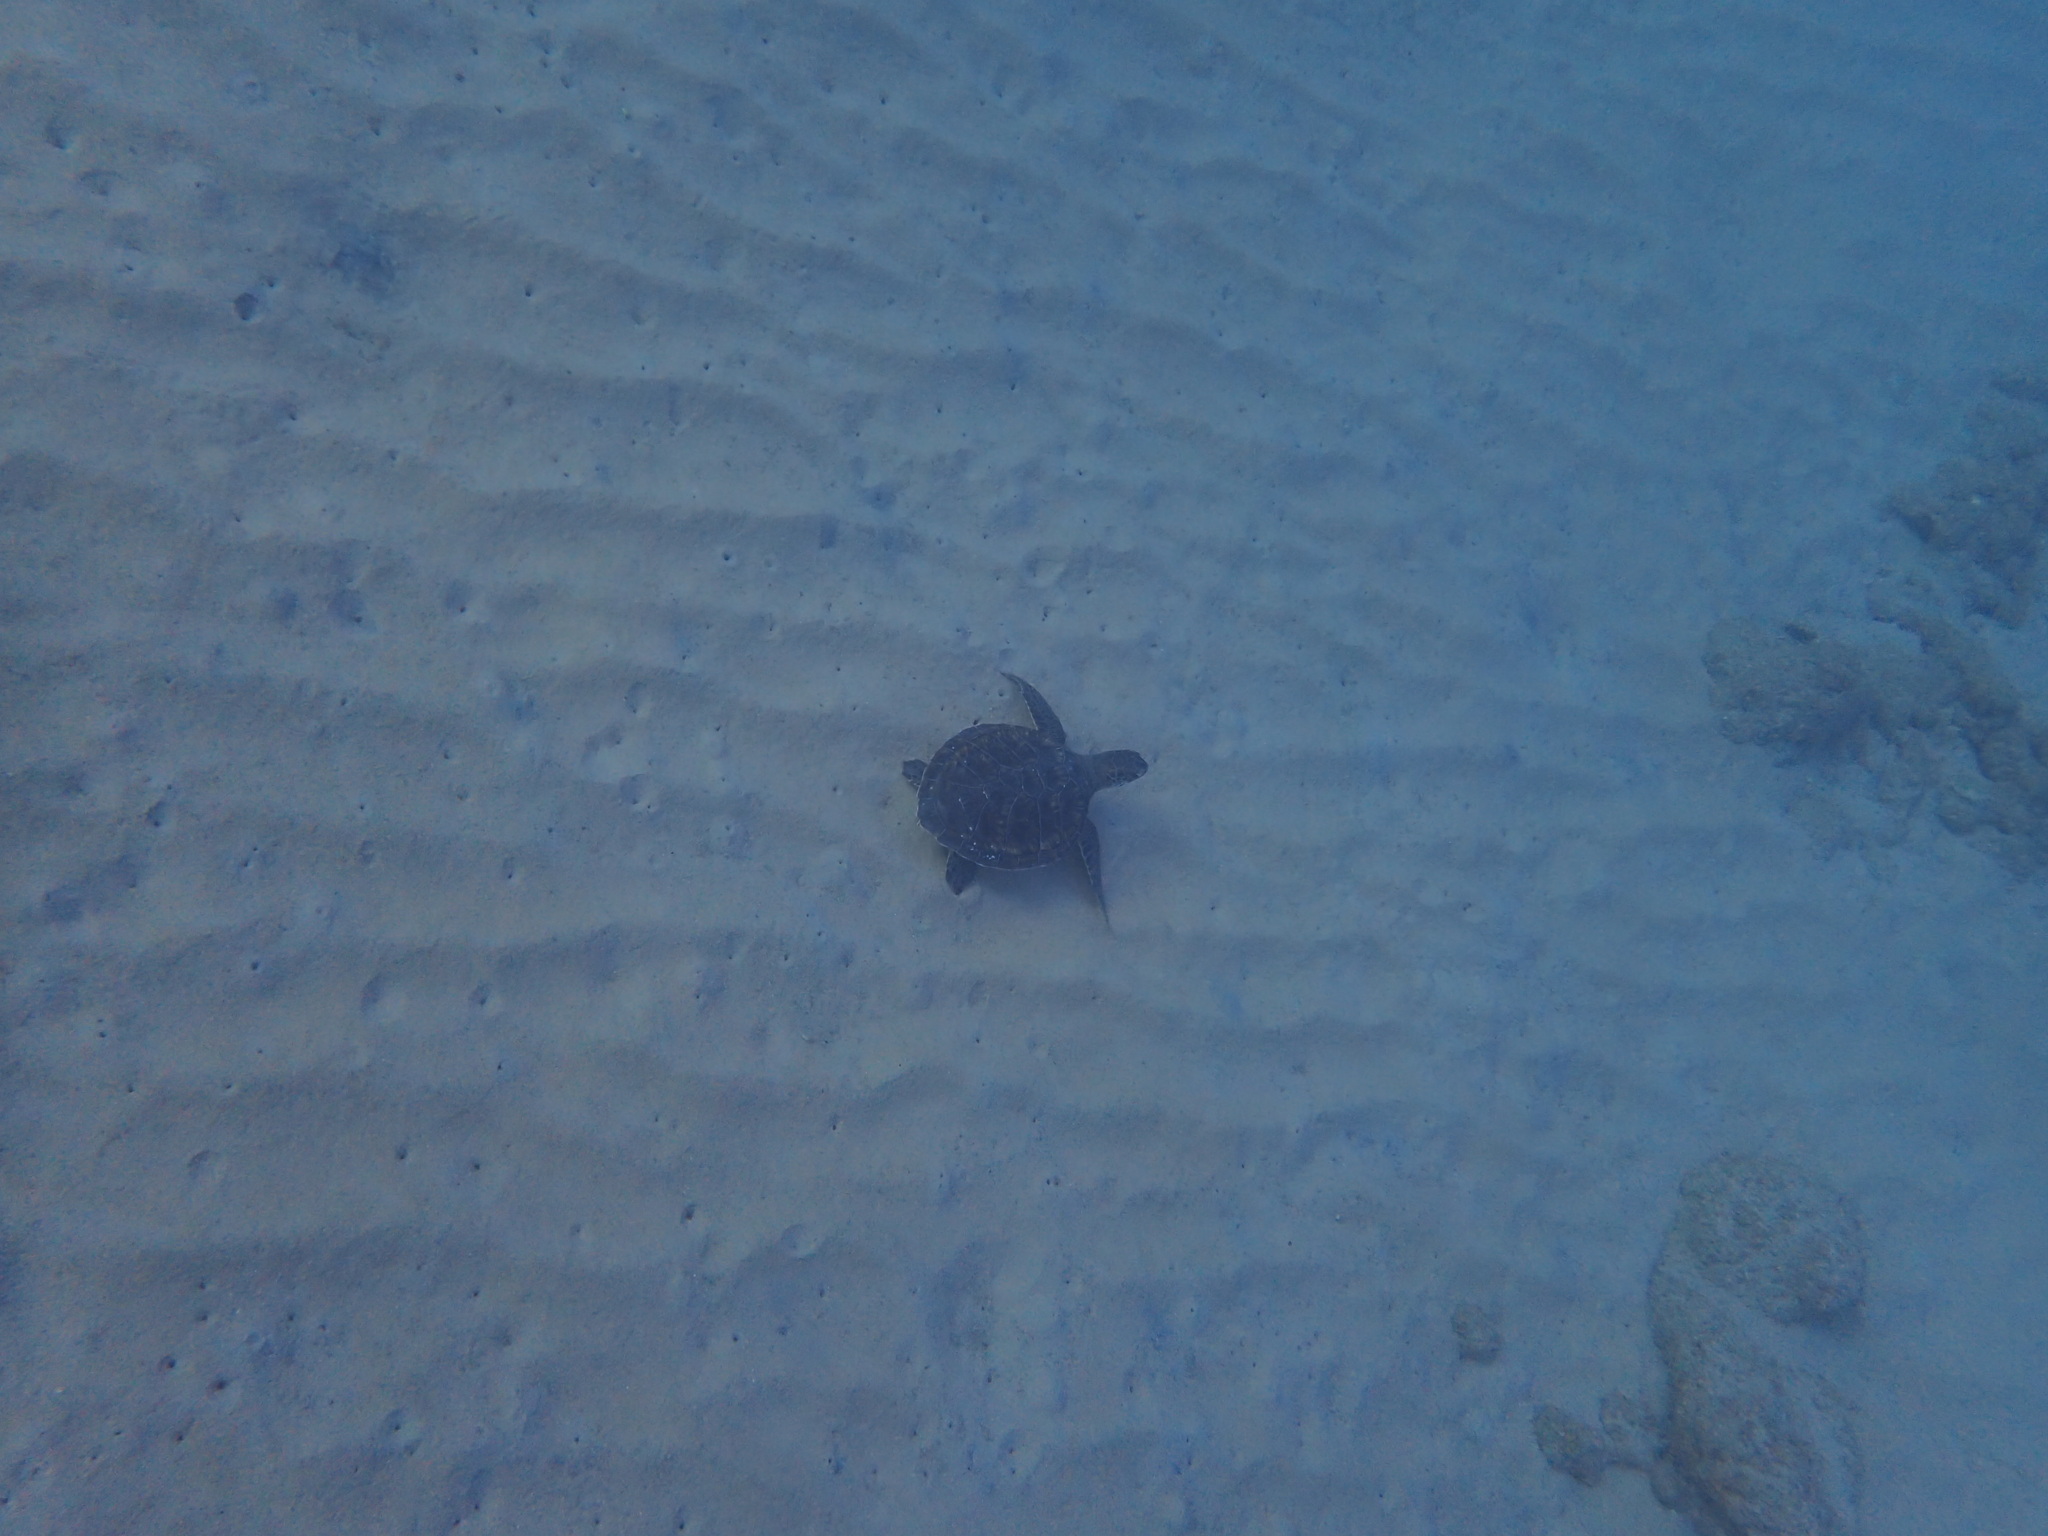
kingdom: Animalia
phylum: Chordata
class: Testudines
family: Cheloniidae
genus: Chelonia
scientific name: Chelonia mydas
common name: Green turtle
